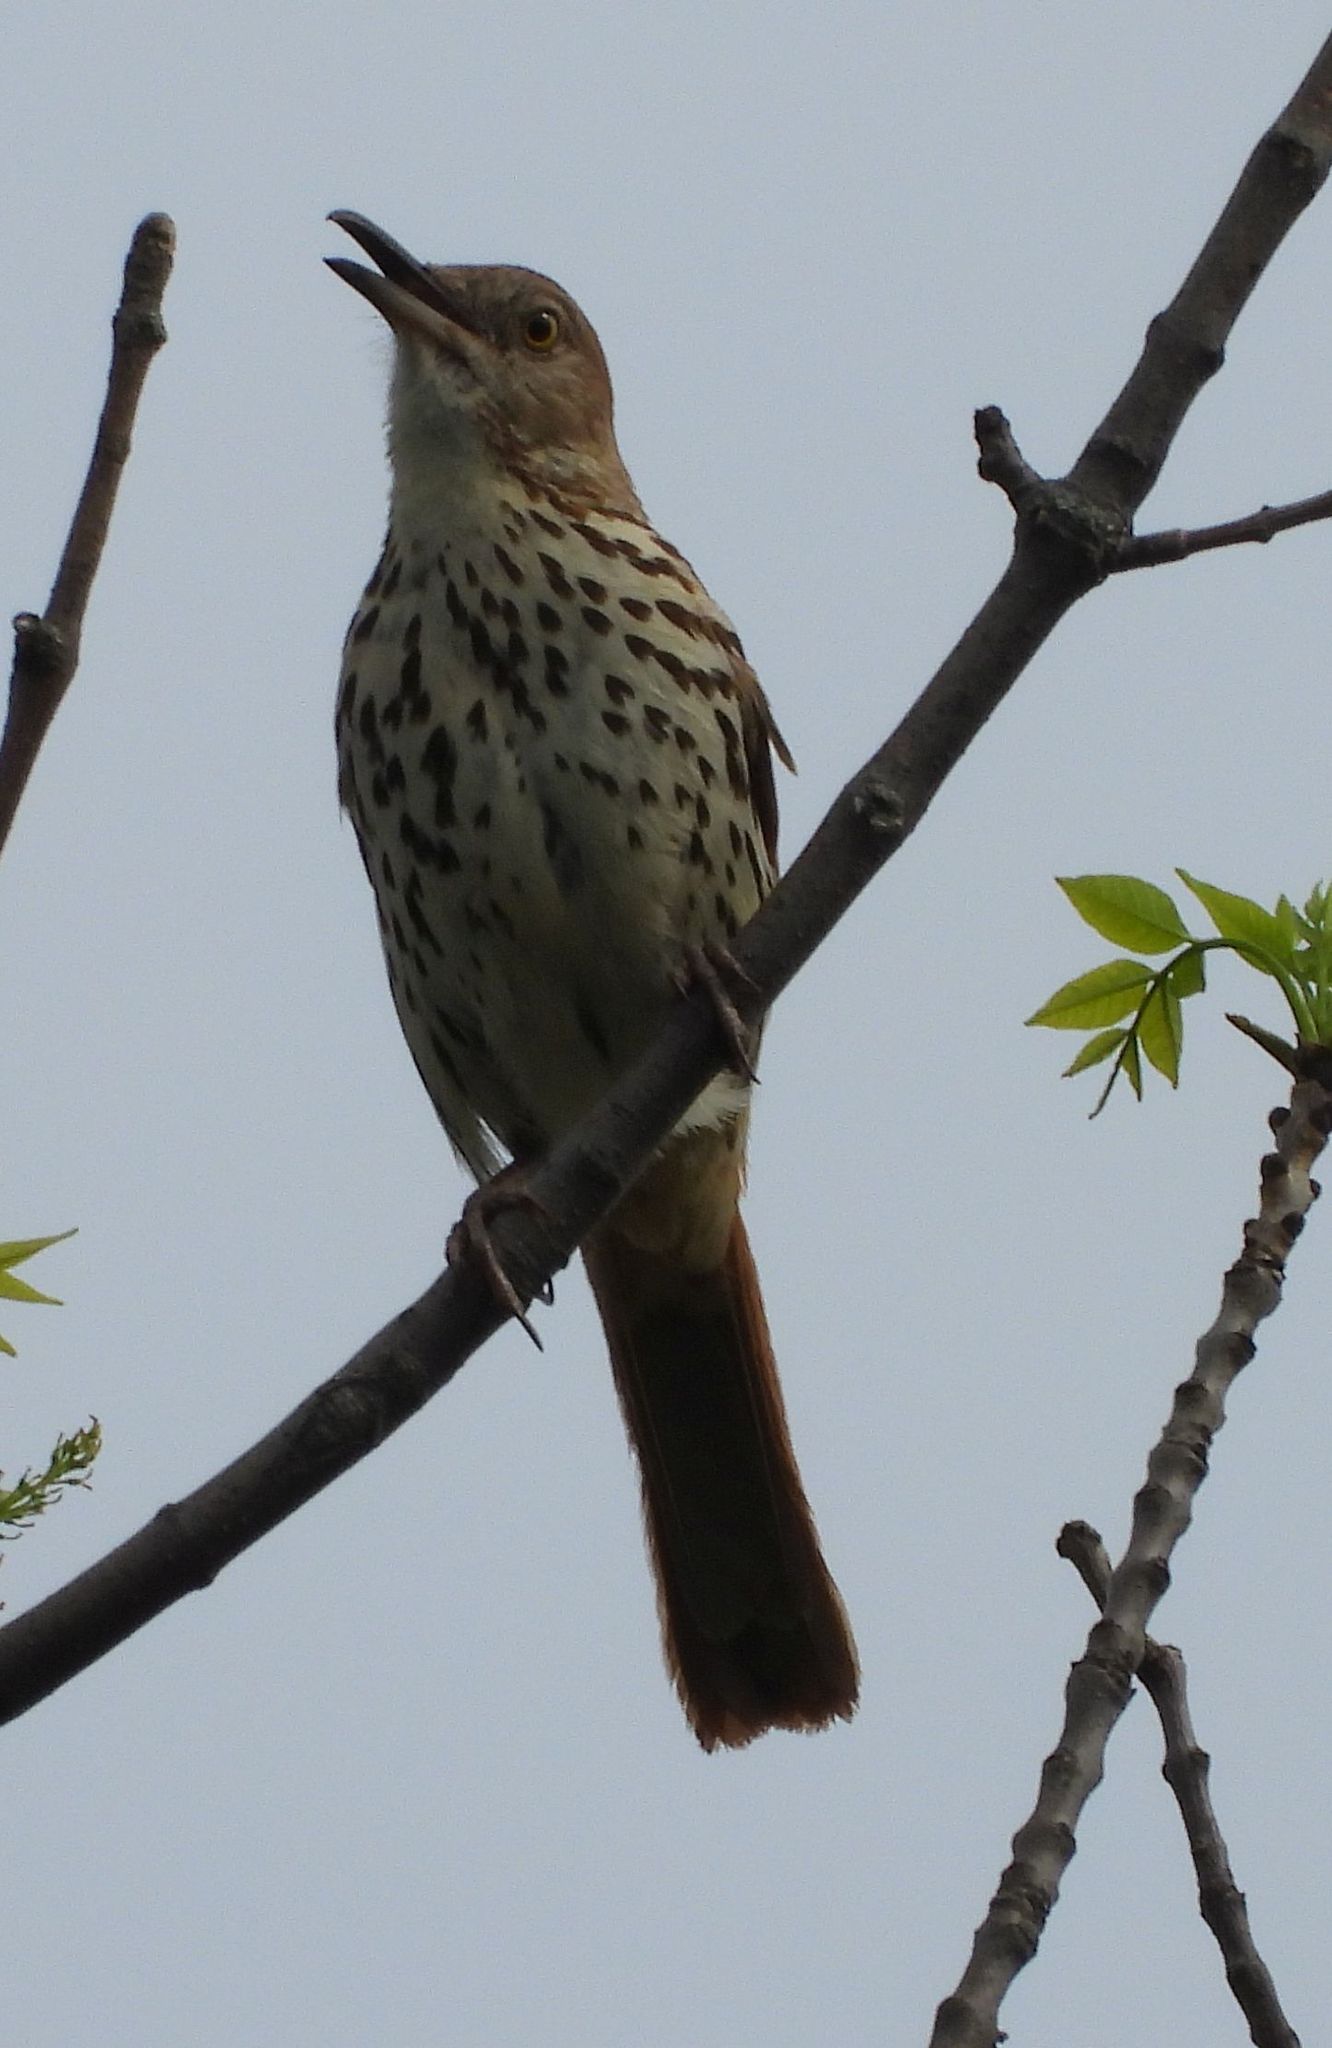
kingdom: Animalia
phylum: Chordata
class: Aves
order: Passeriformes
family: Mimidae
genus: Toxostoma
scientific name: Toxostoma rufum
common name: Brown thrasher
